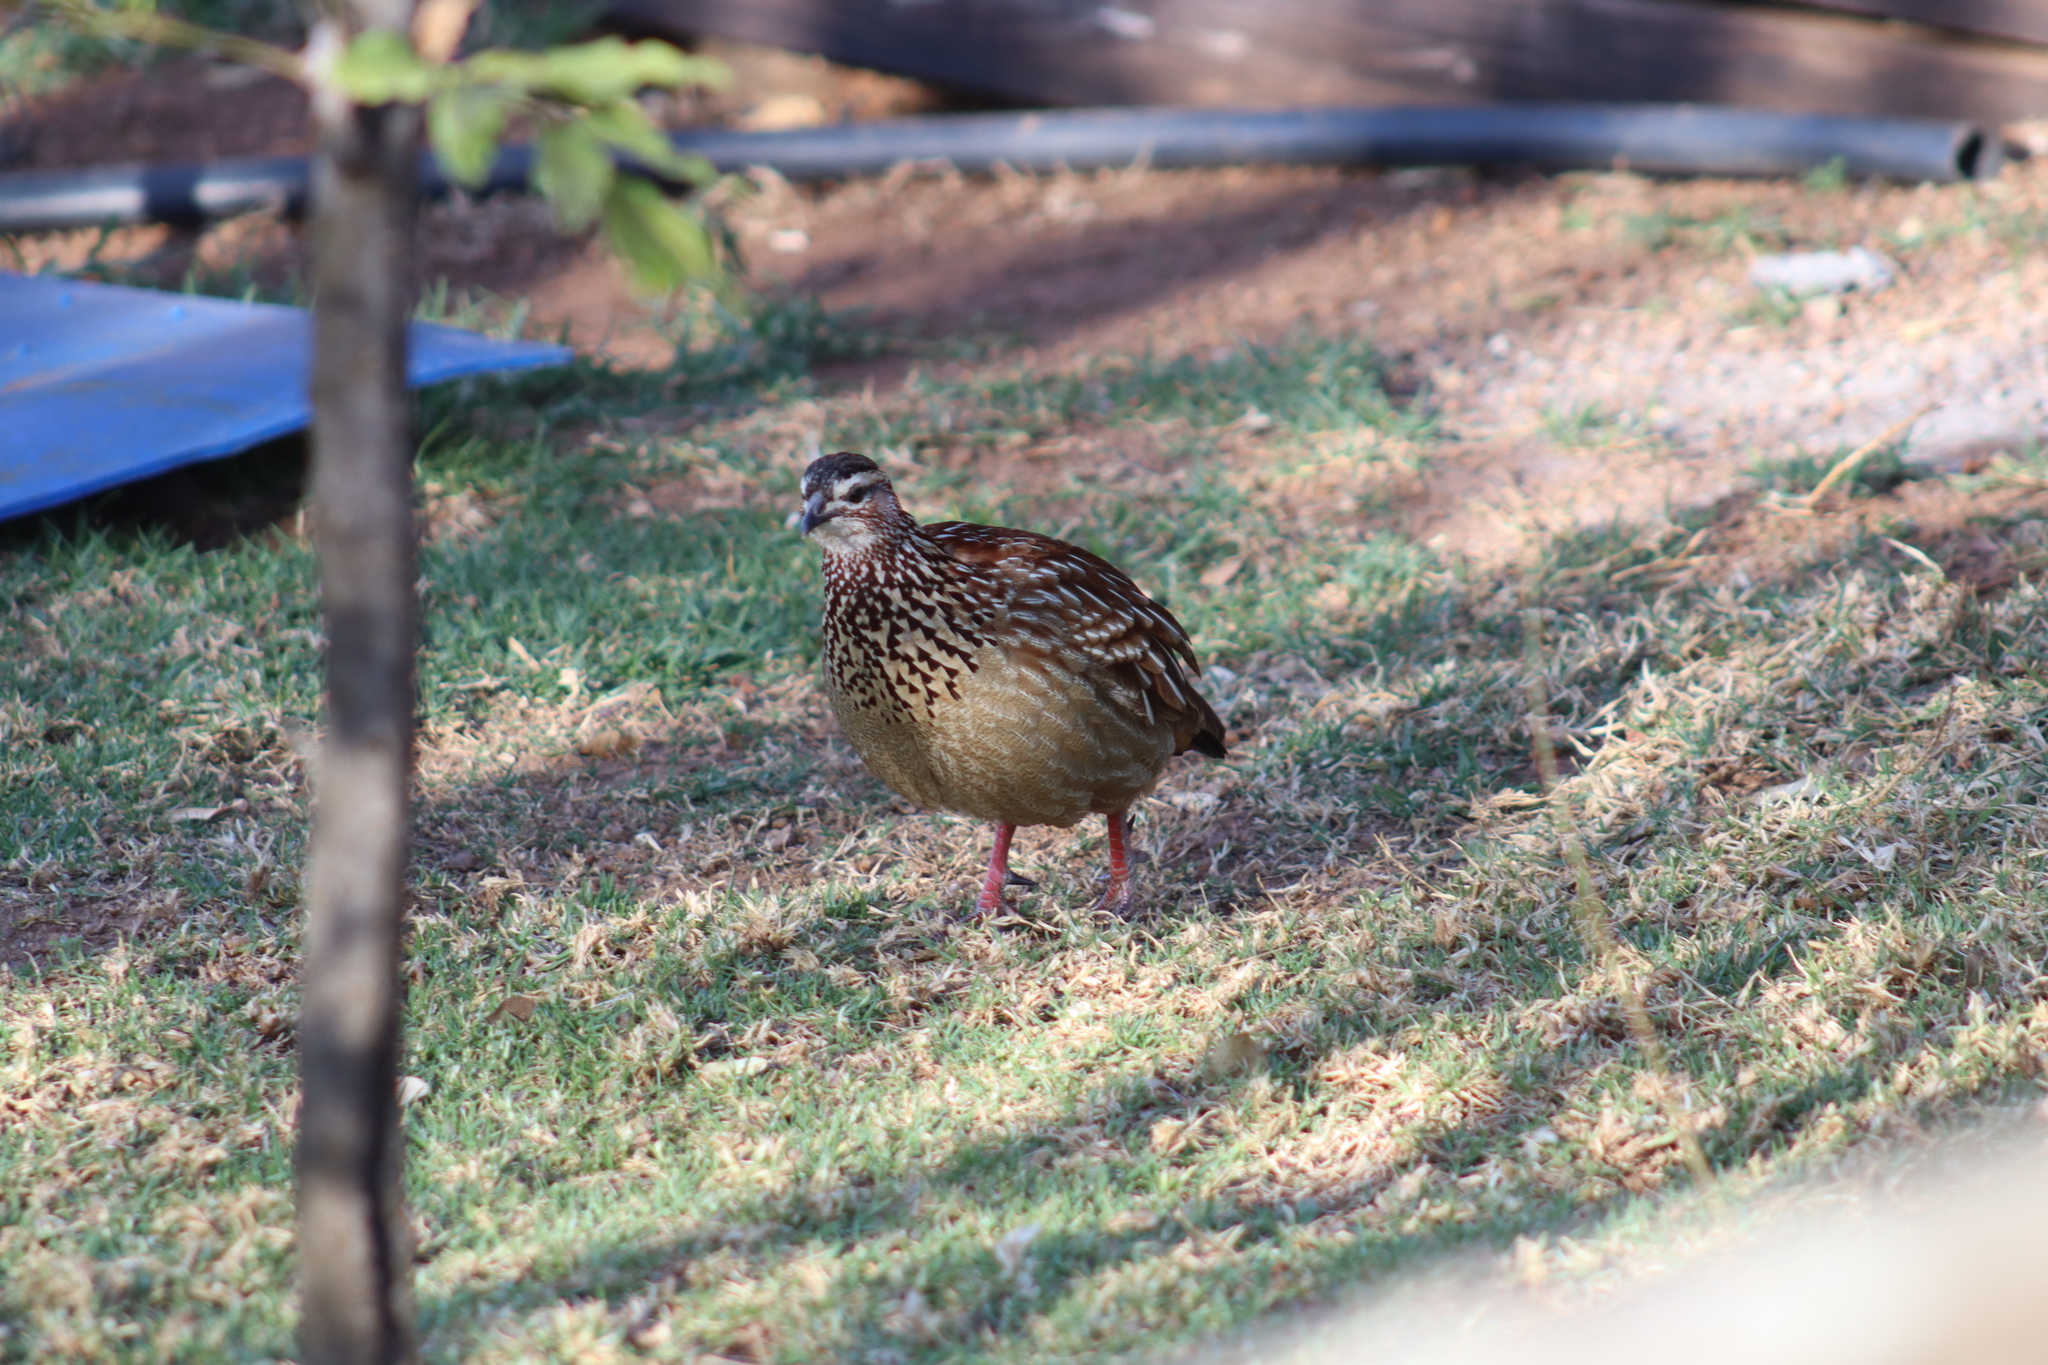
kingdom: Animalia
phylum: Chordata
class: Aves
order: Galliformes
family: Phasianidae
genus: Ortygornis
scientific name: Ortygornis sephaena
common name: Crested francolin
